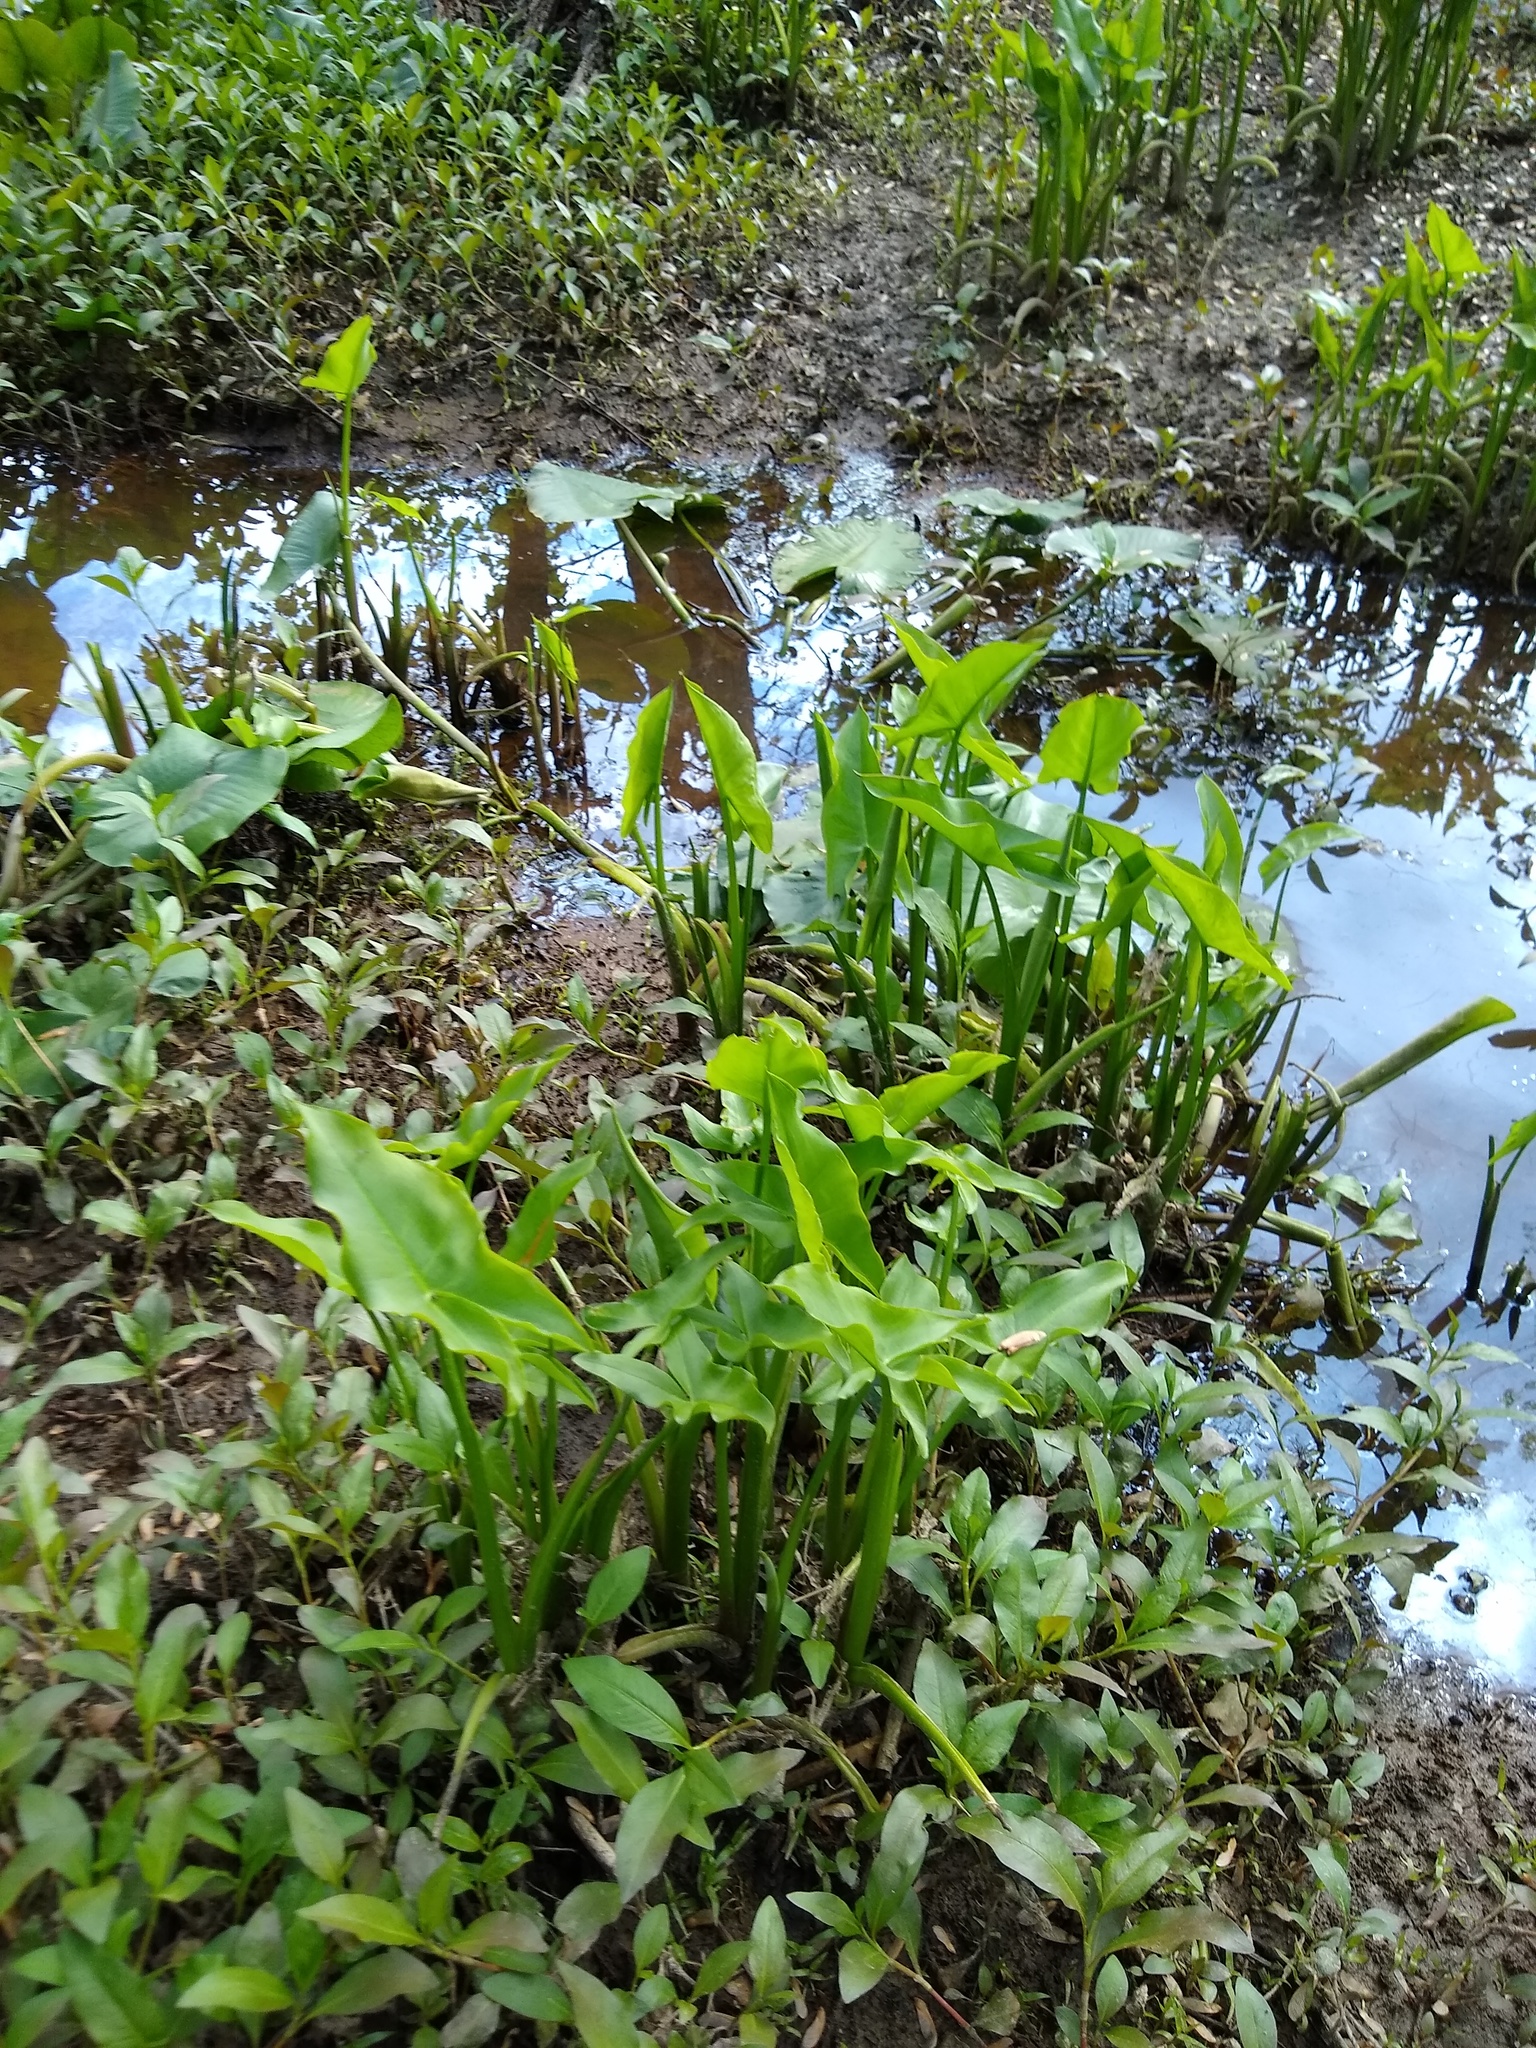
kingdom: Plantae
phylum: Tracheophyta
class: Liliopsida
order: Alismatales
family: Araceae
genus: Peltandra
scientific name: Peltandra virginica
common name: Arrow arum
